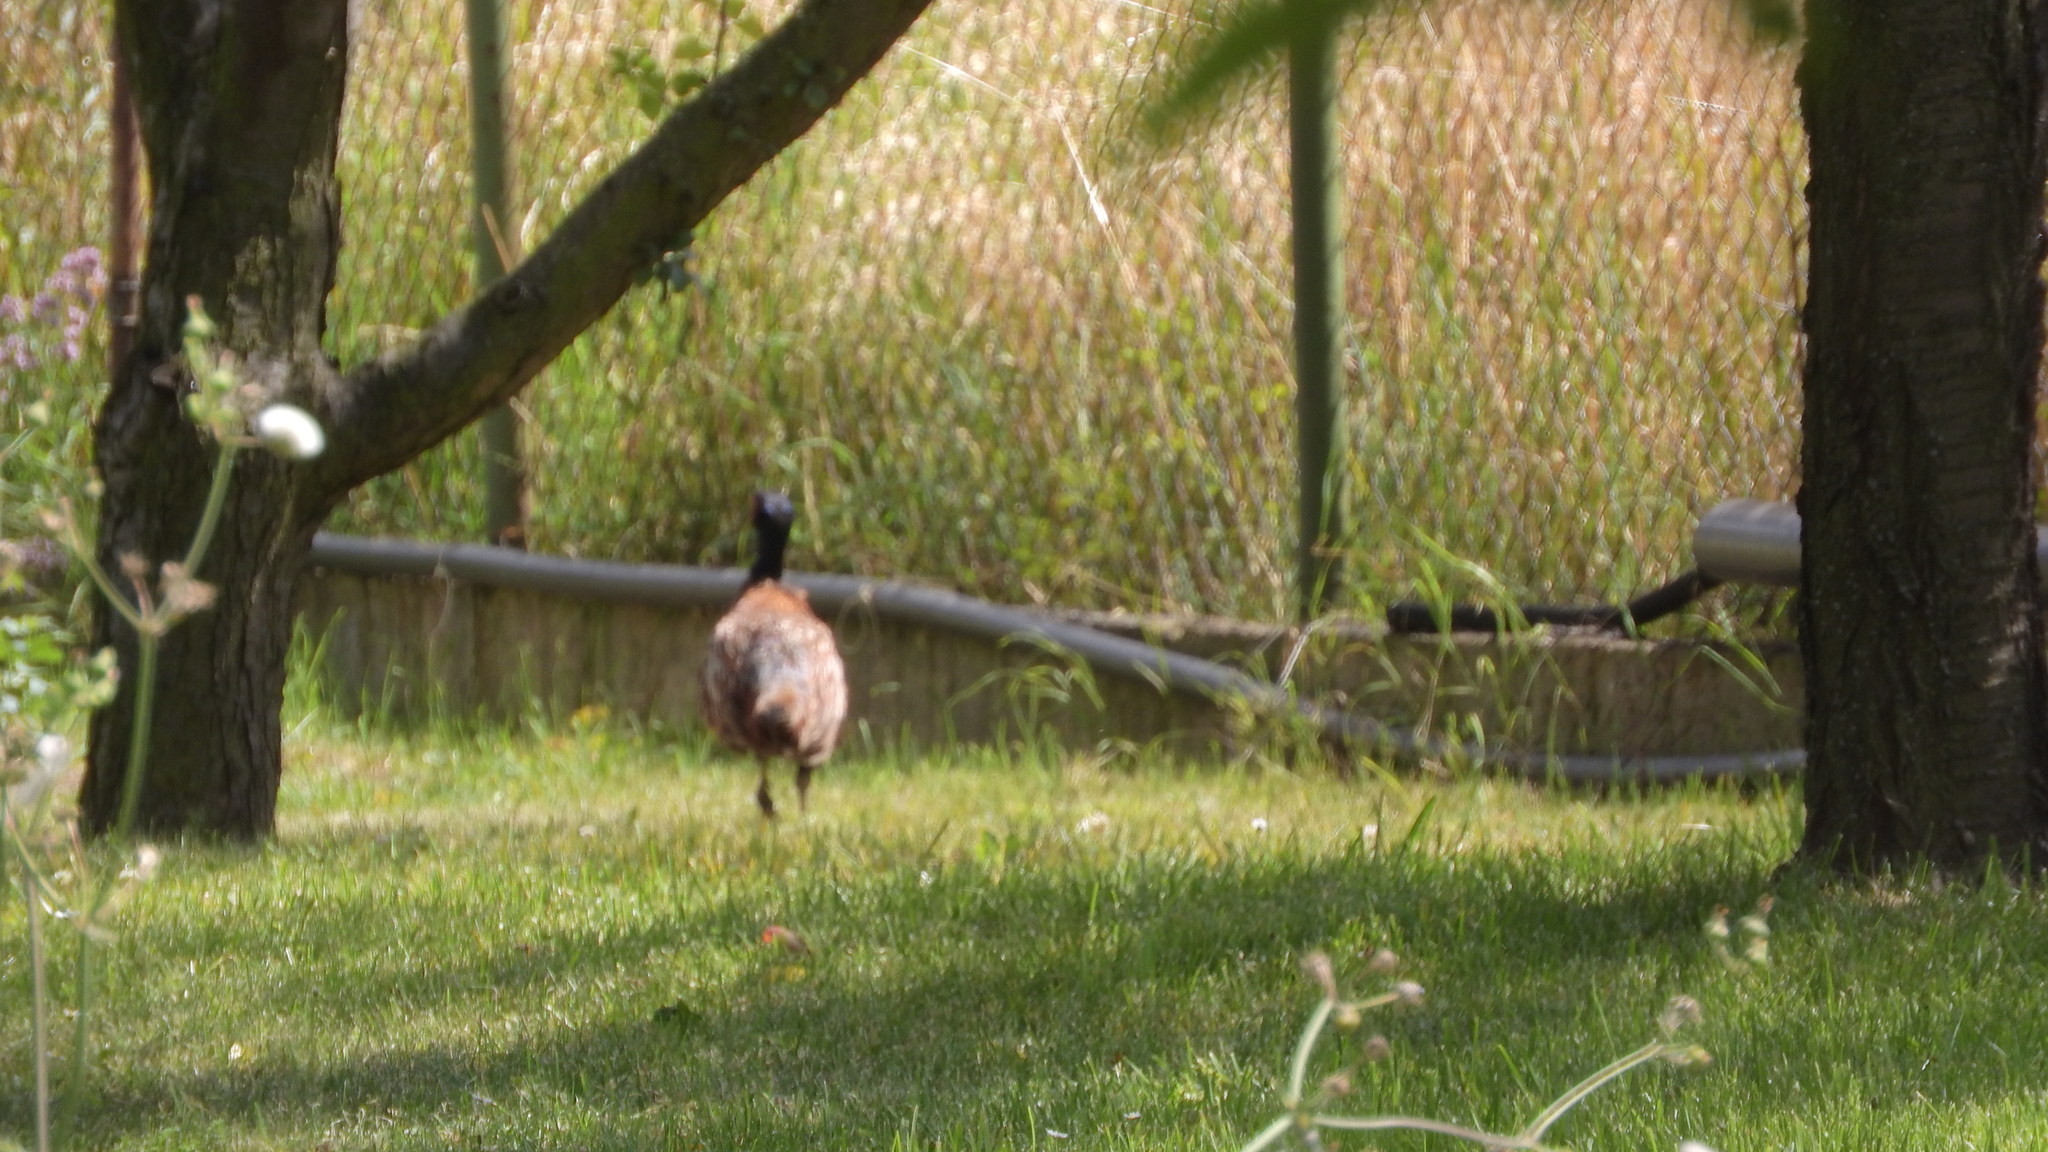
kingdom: Animalia
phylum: Chordata
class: Aves
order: Galliformes
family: Phasianidae
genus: Phasianus
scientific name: Phasianus colchicus
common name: Common pheasant
